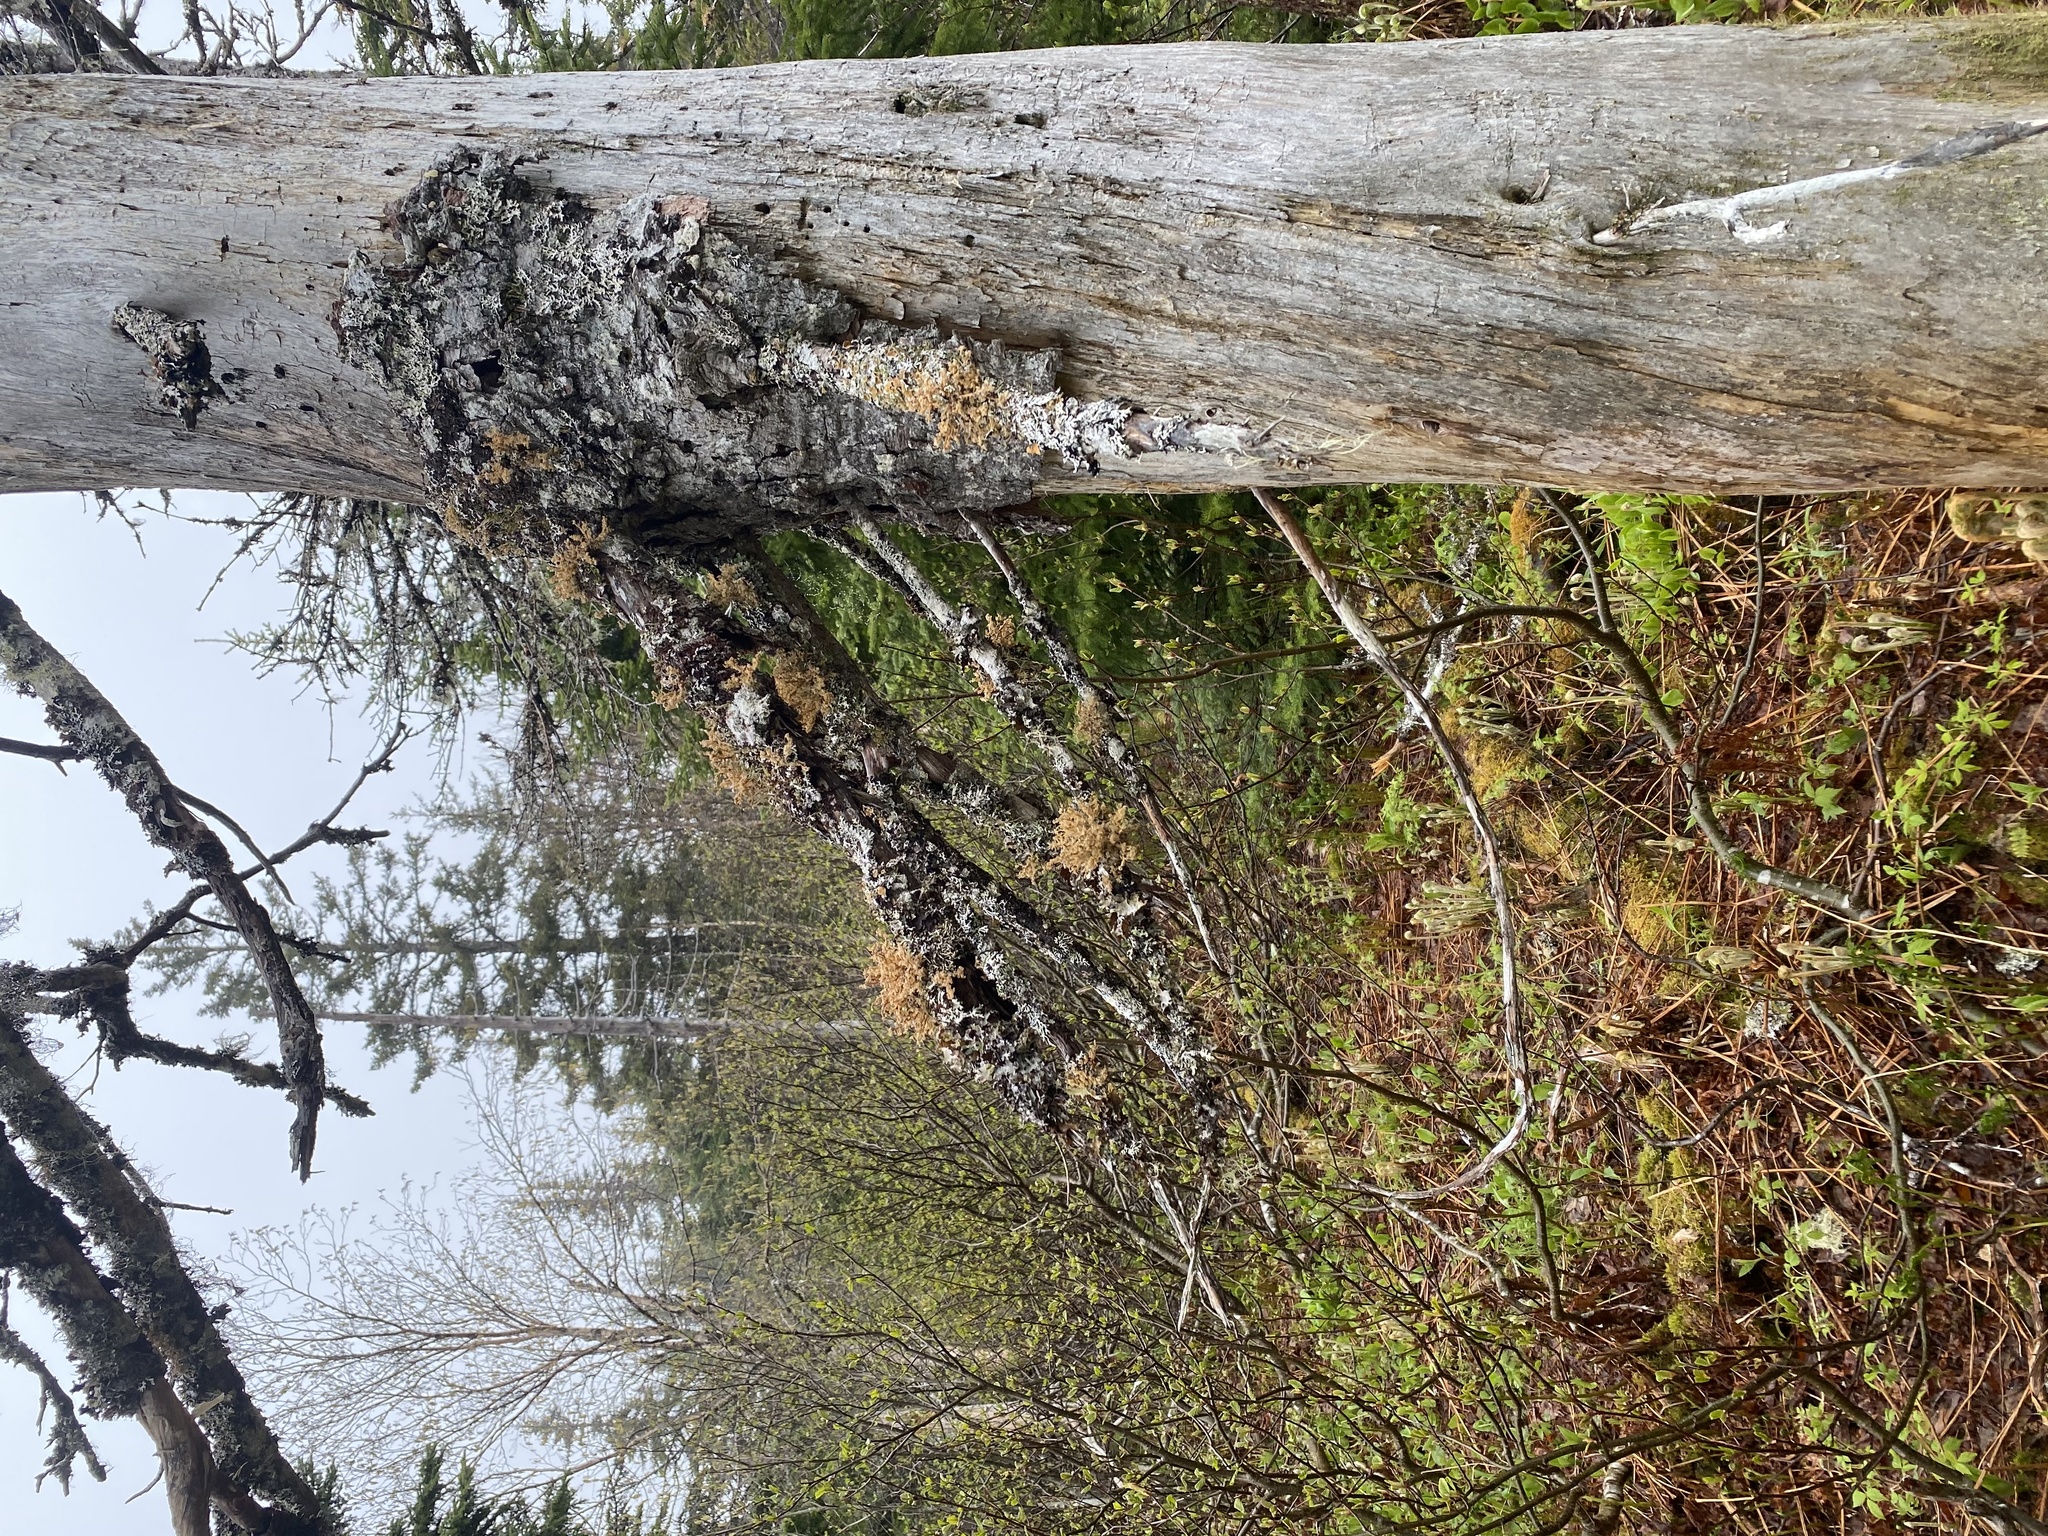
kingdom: Fungi
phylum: Ascomycota
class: Lecanoromycetes
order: Lecanorales
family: Sphaerophoraceae
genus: Sphaerophorus
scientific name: Sphaerophorus globosus
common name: Globe ball lichen
